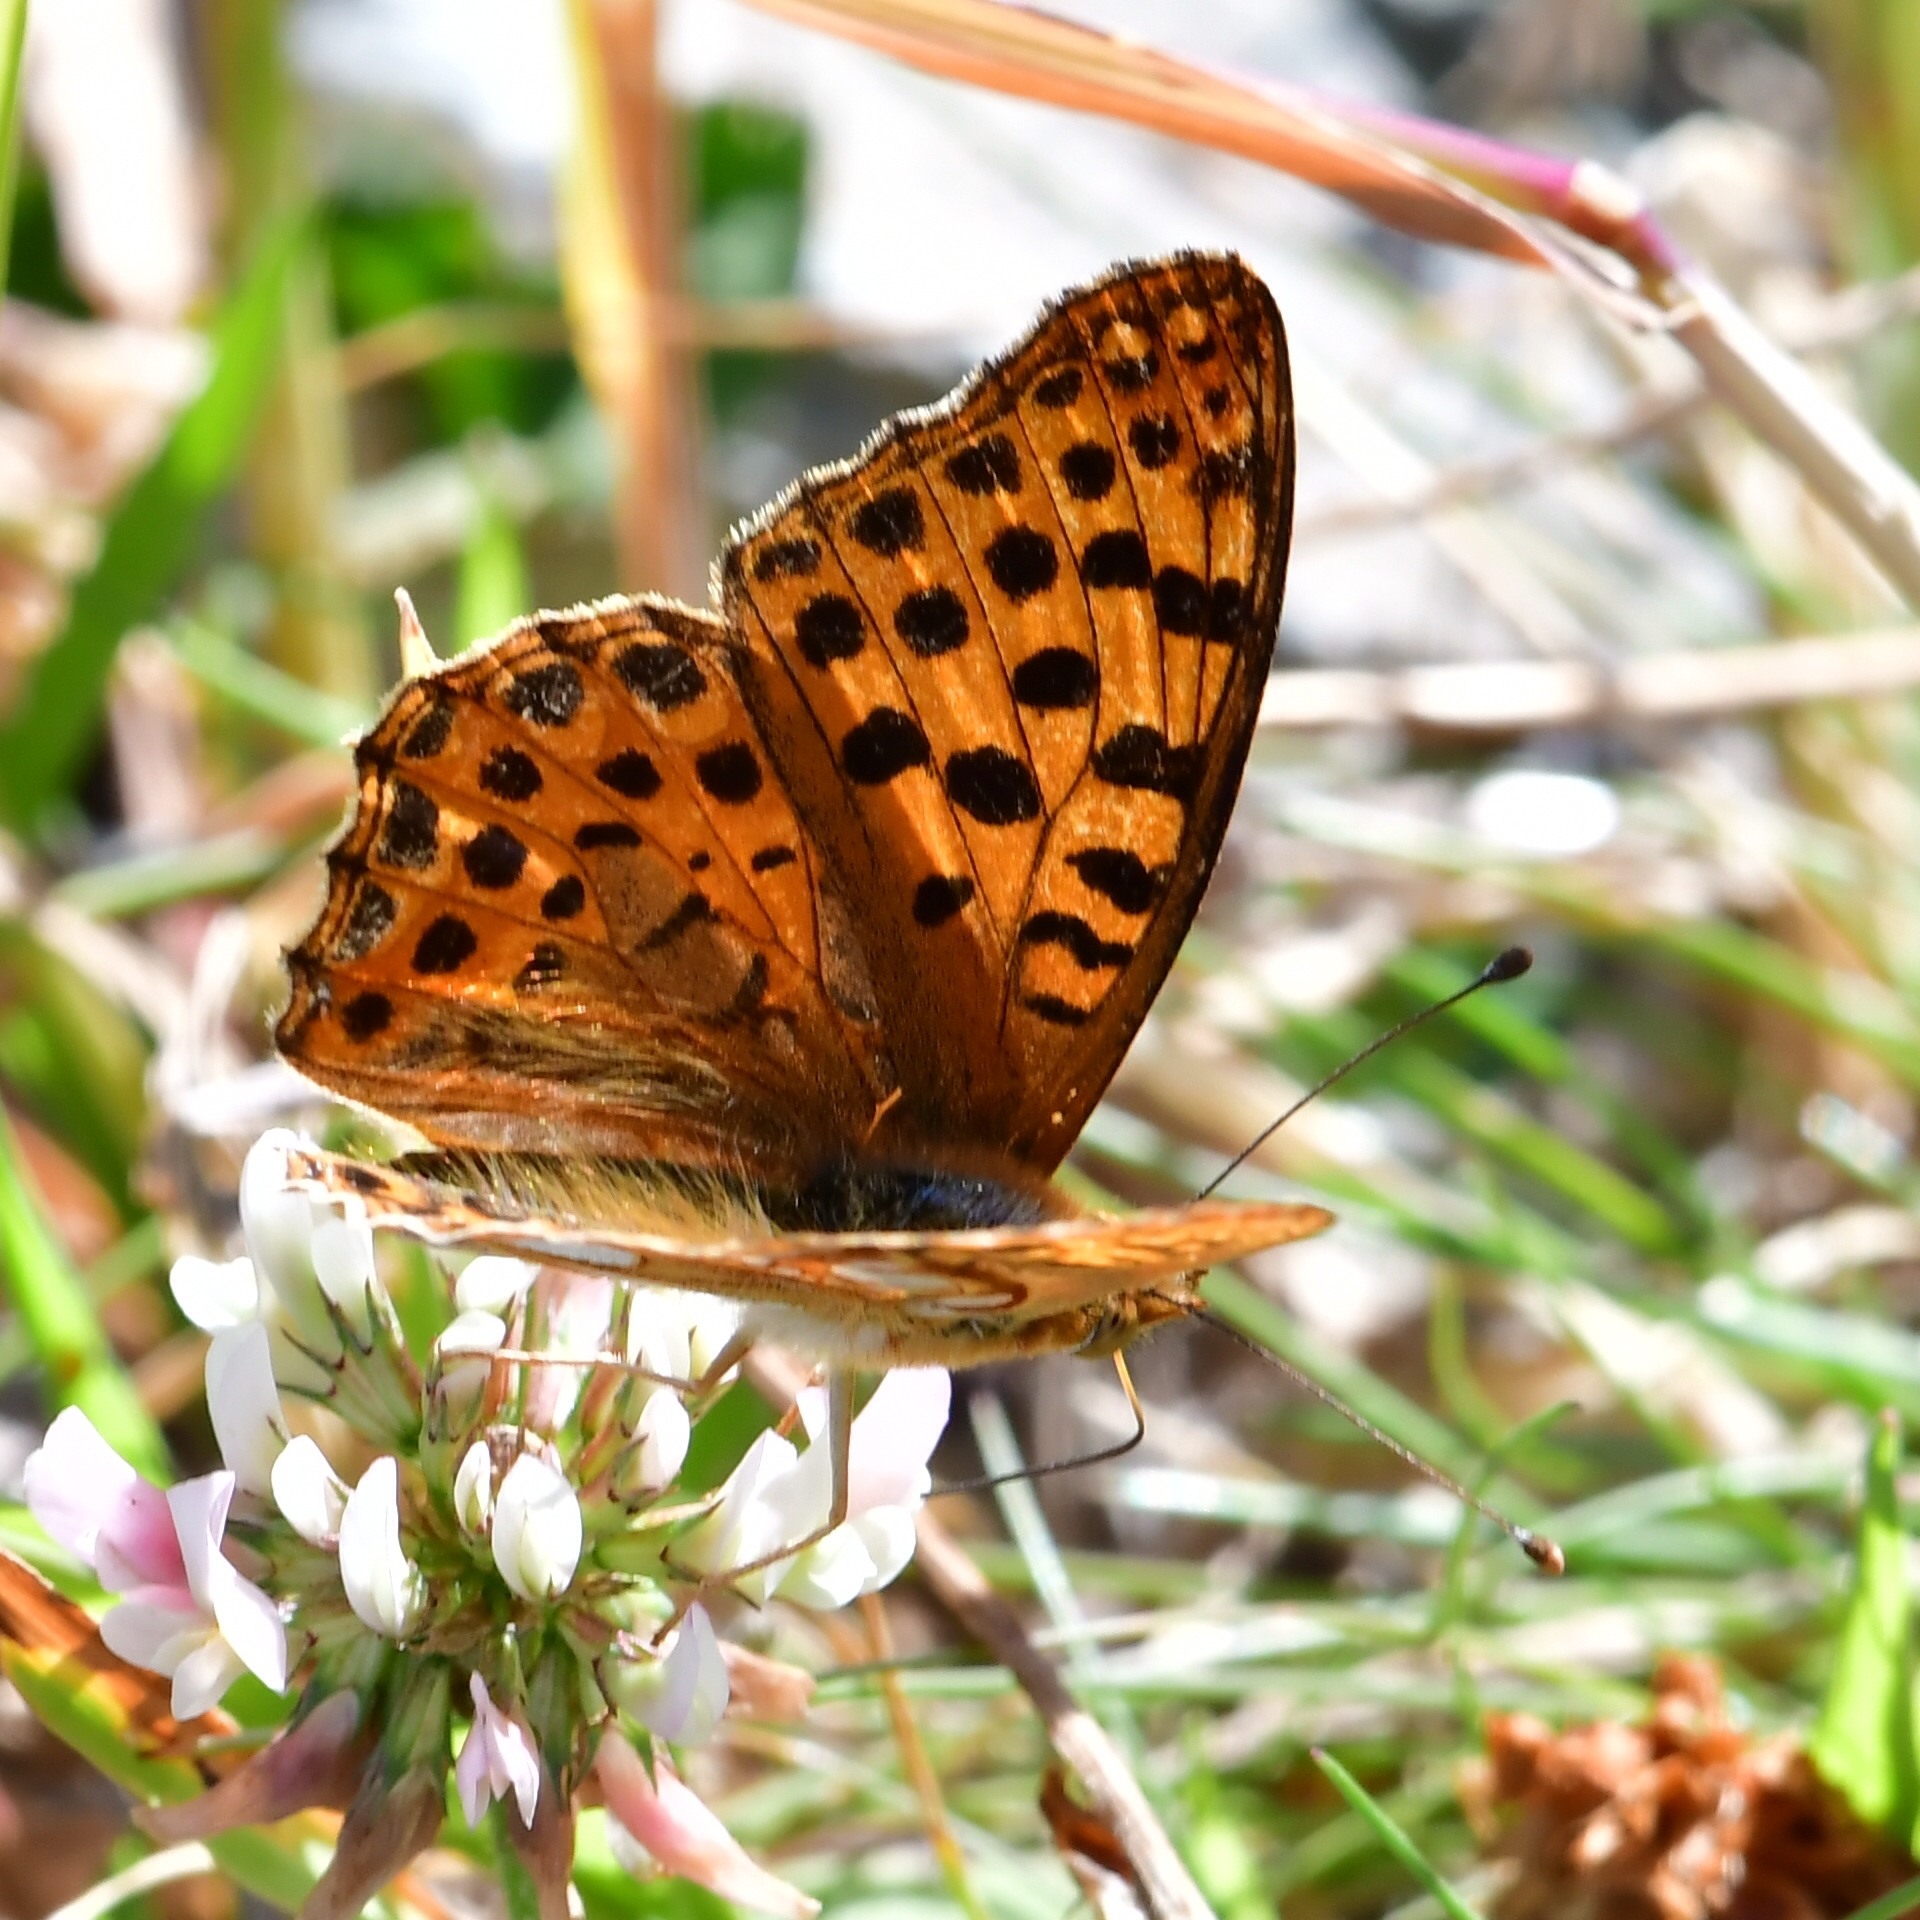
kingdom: Animalia
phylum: Arthropoda
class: Insecta
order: Lepidoptera
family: Nymphalidae
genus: Issoria
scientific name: Issoria lathonia
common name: Queen of spain fritillary
